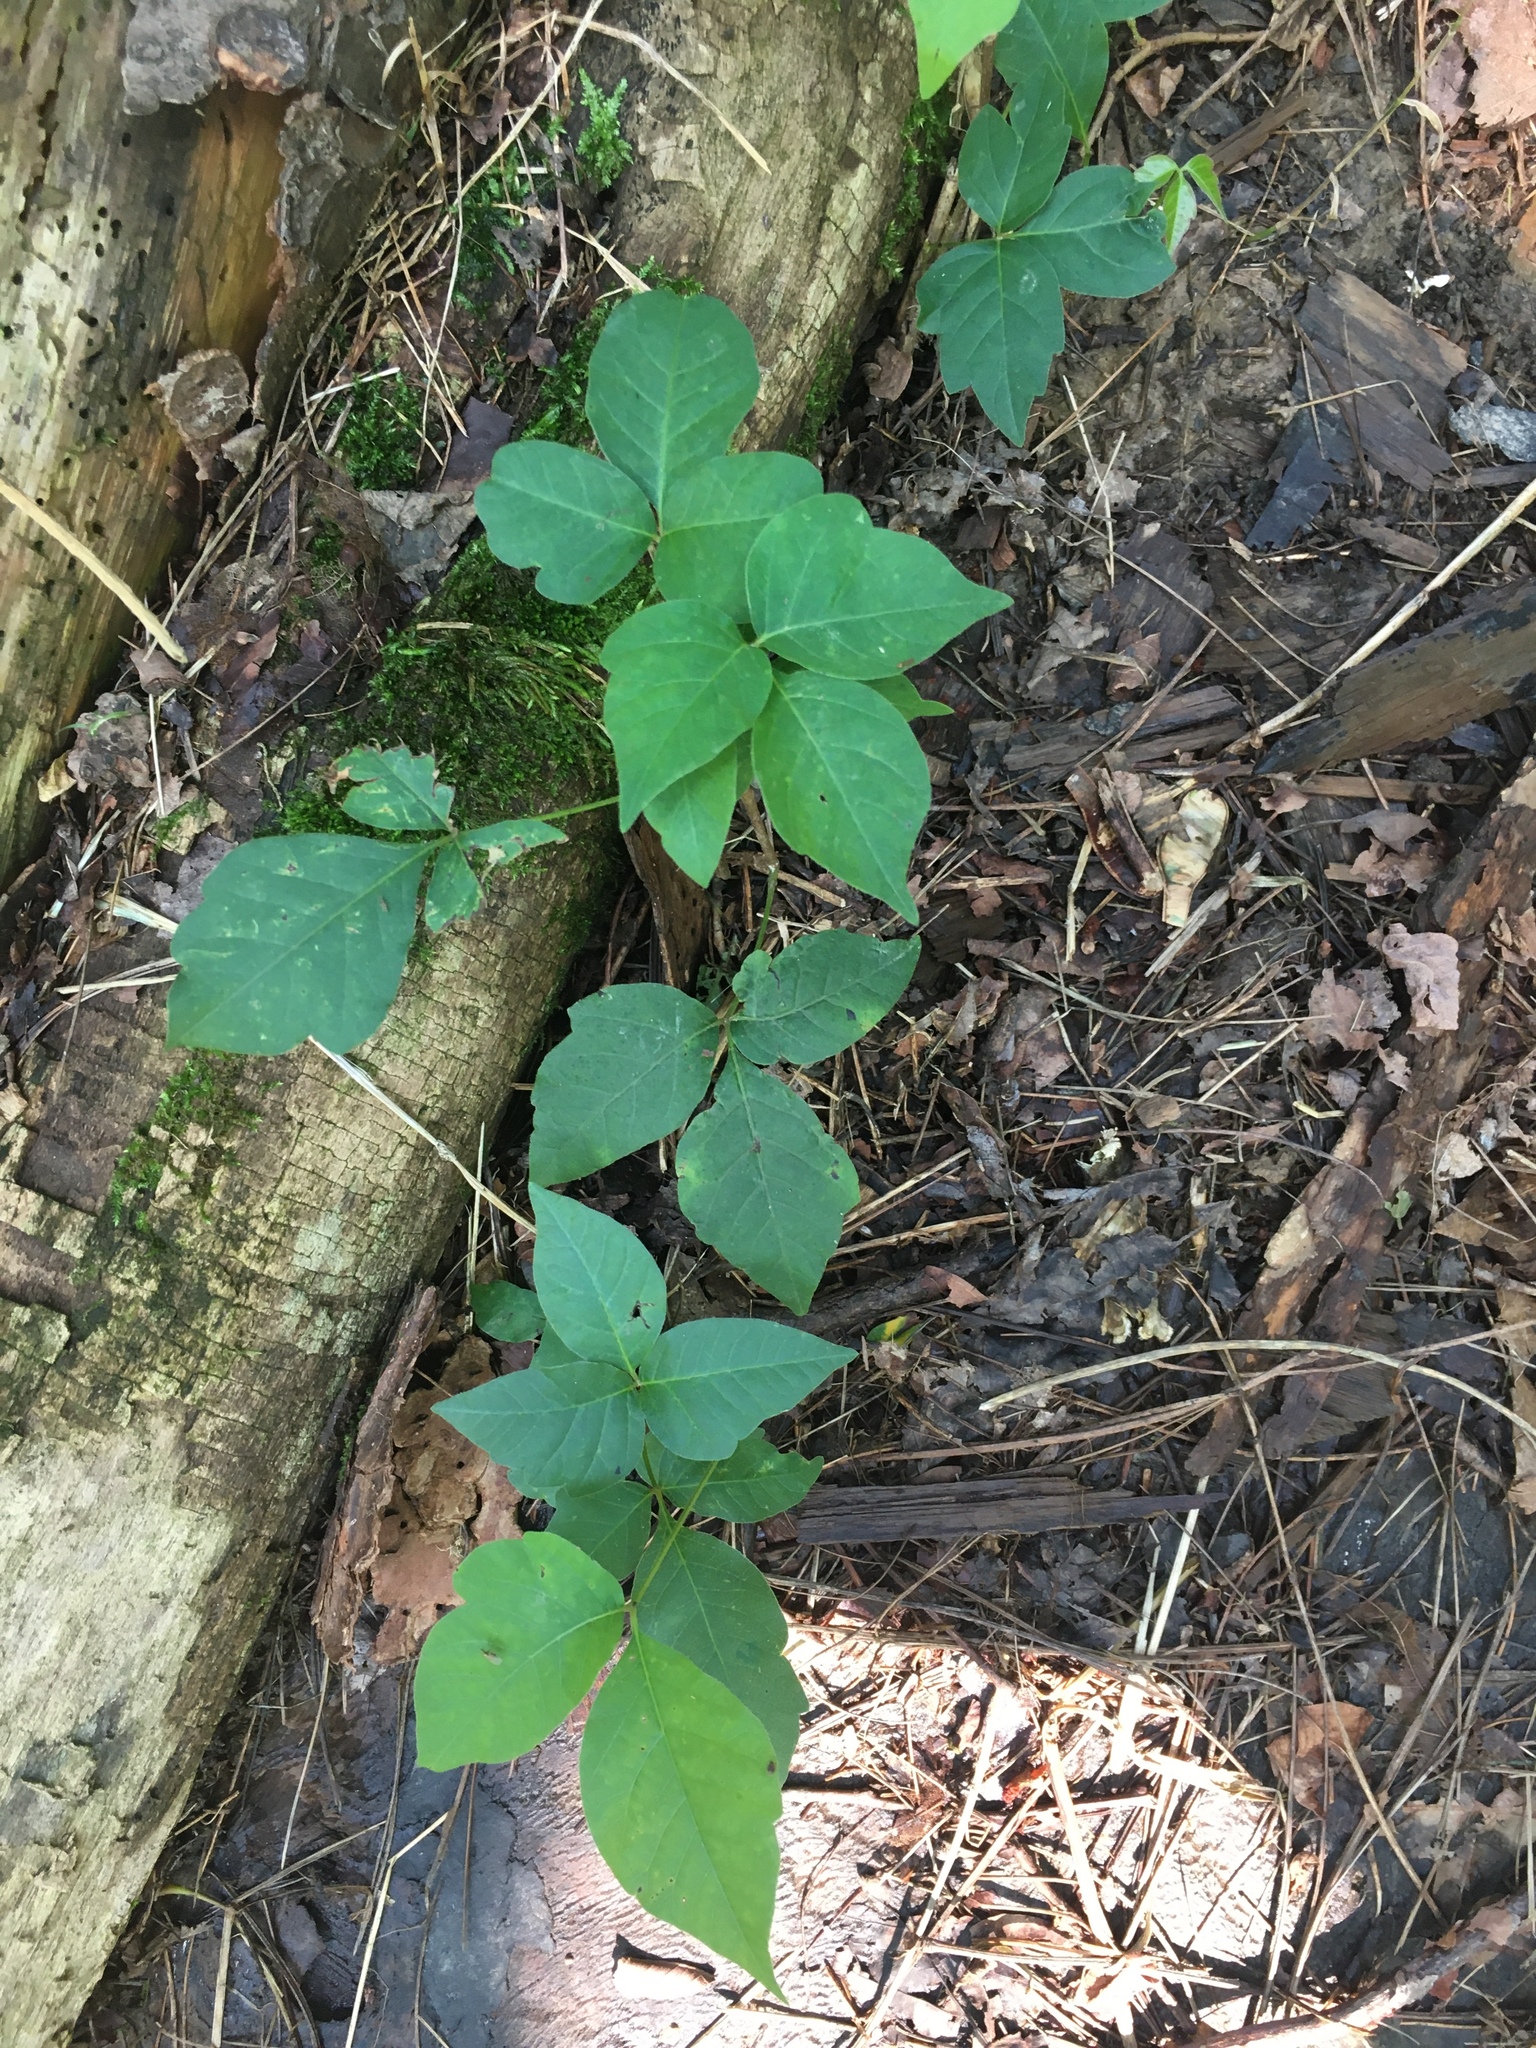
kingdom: Plantae
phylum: Tracheophyta
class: Magnoliopsida
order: Sapindales
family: Anacardiaceae
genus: Toxicodendron
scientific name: Toxicodendron radicans
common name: Poison ivy
